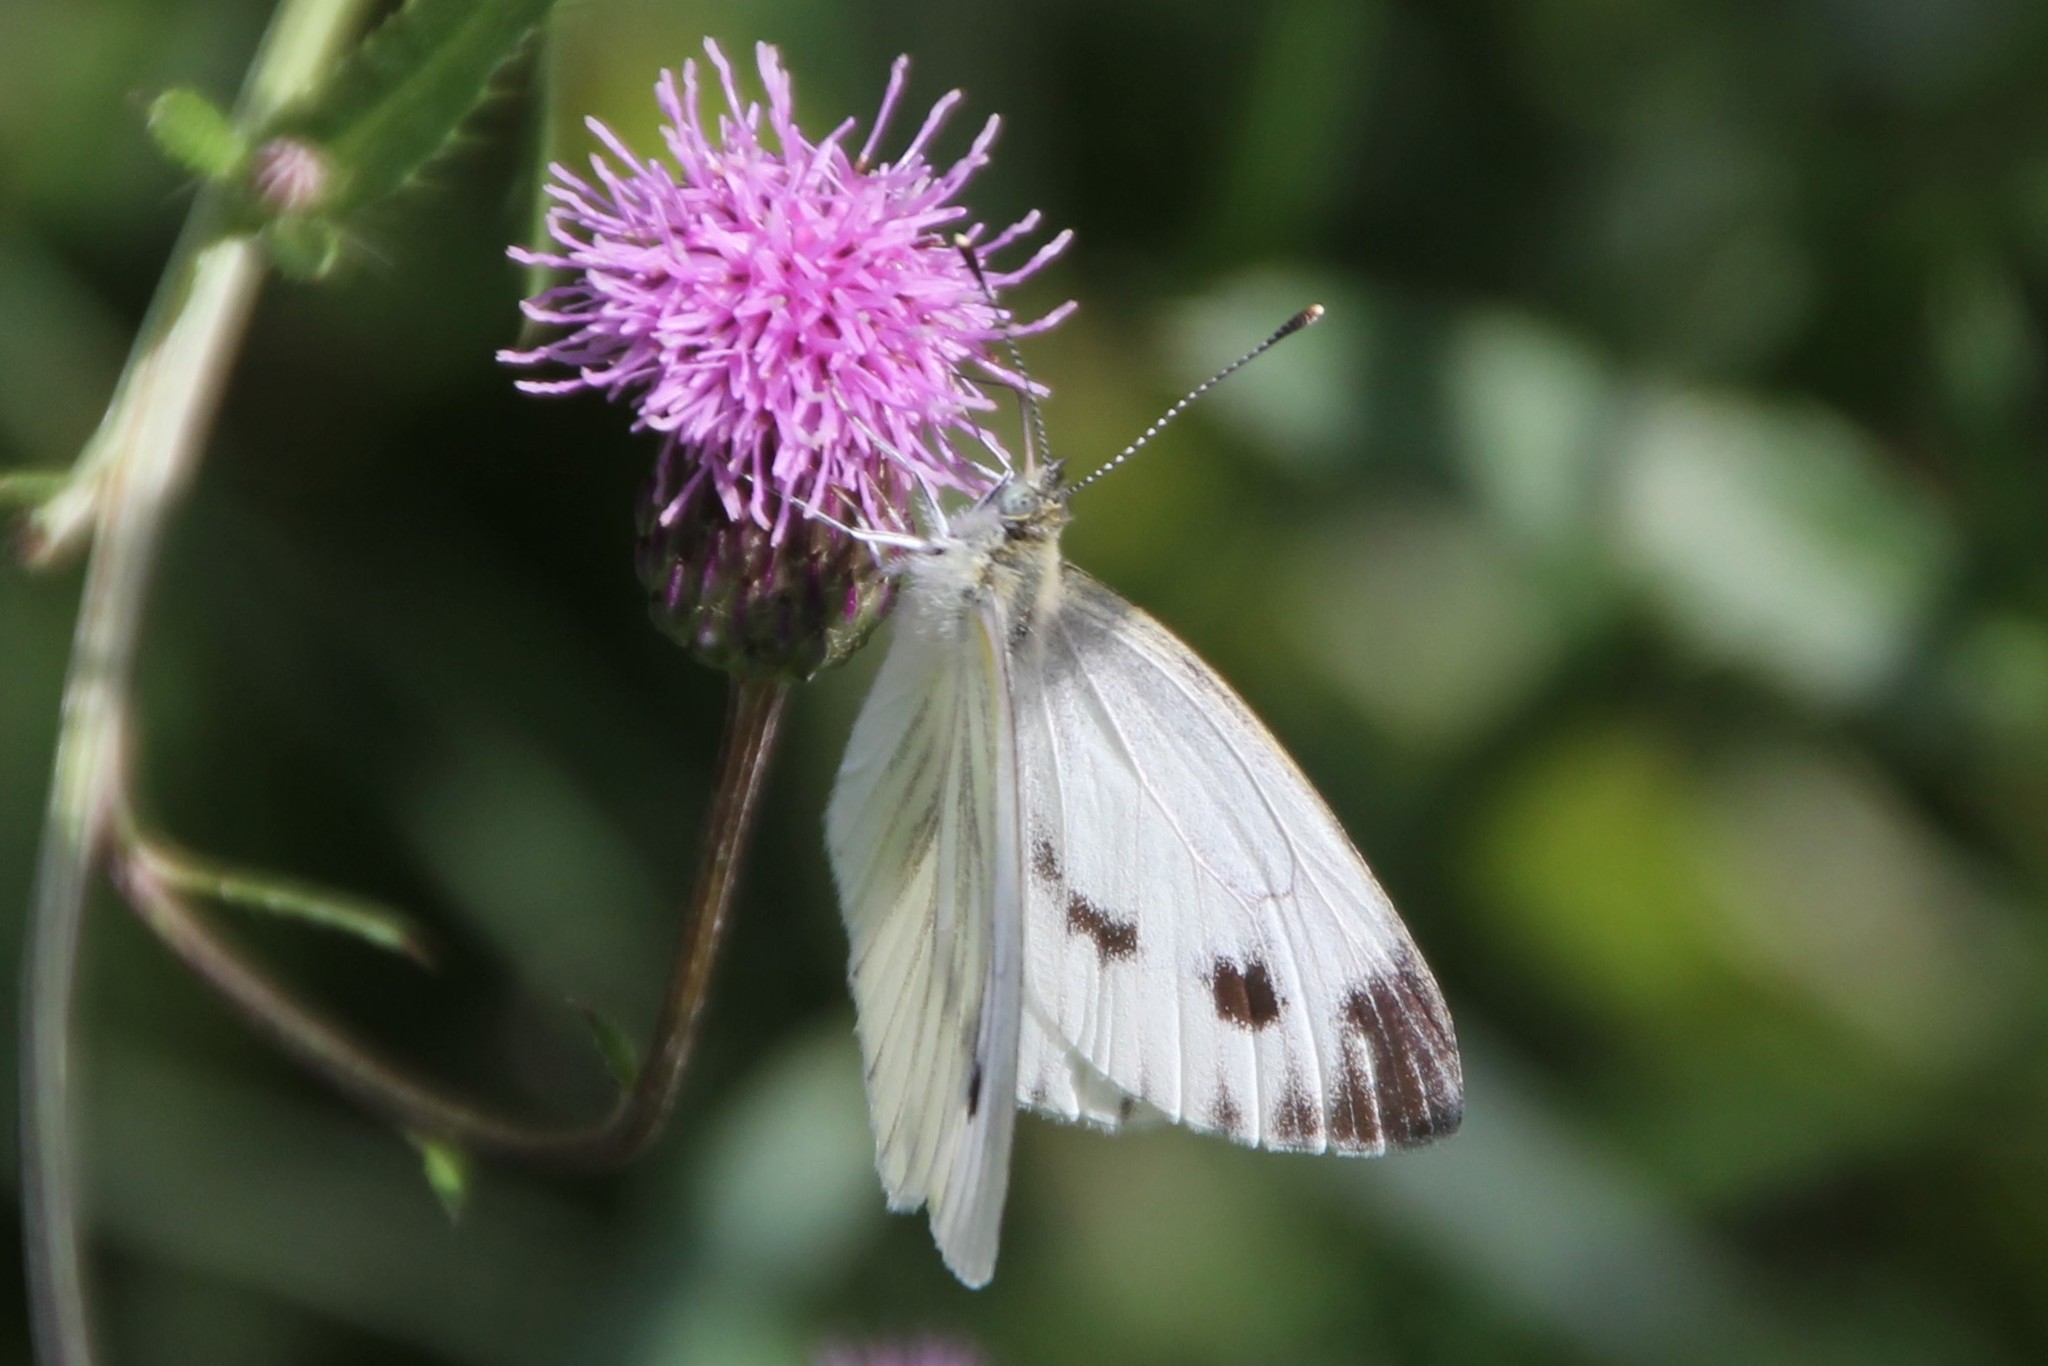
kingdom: Animalia
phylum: Arthropoda
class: Insecta
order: Lepidoptera
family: Pieridae
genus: Pieris
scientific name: Pieris napi
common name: Green-veined white
